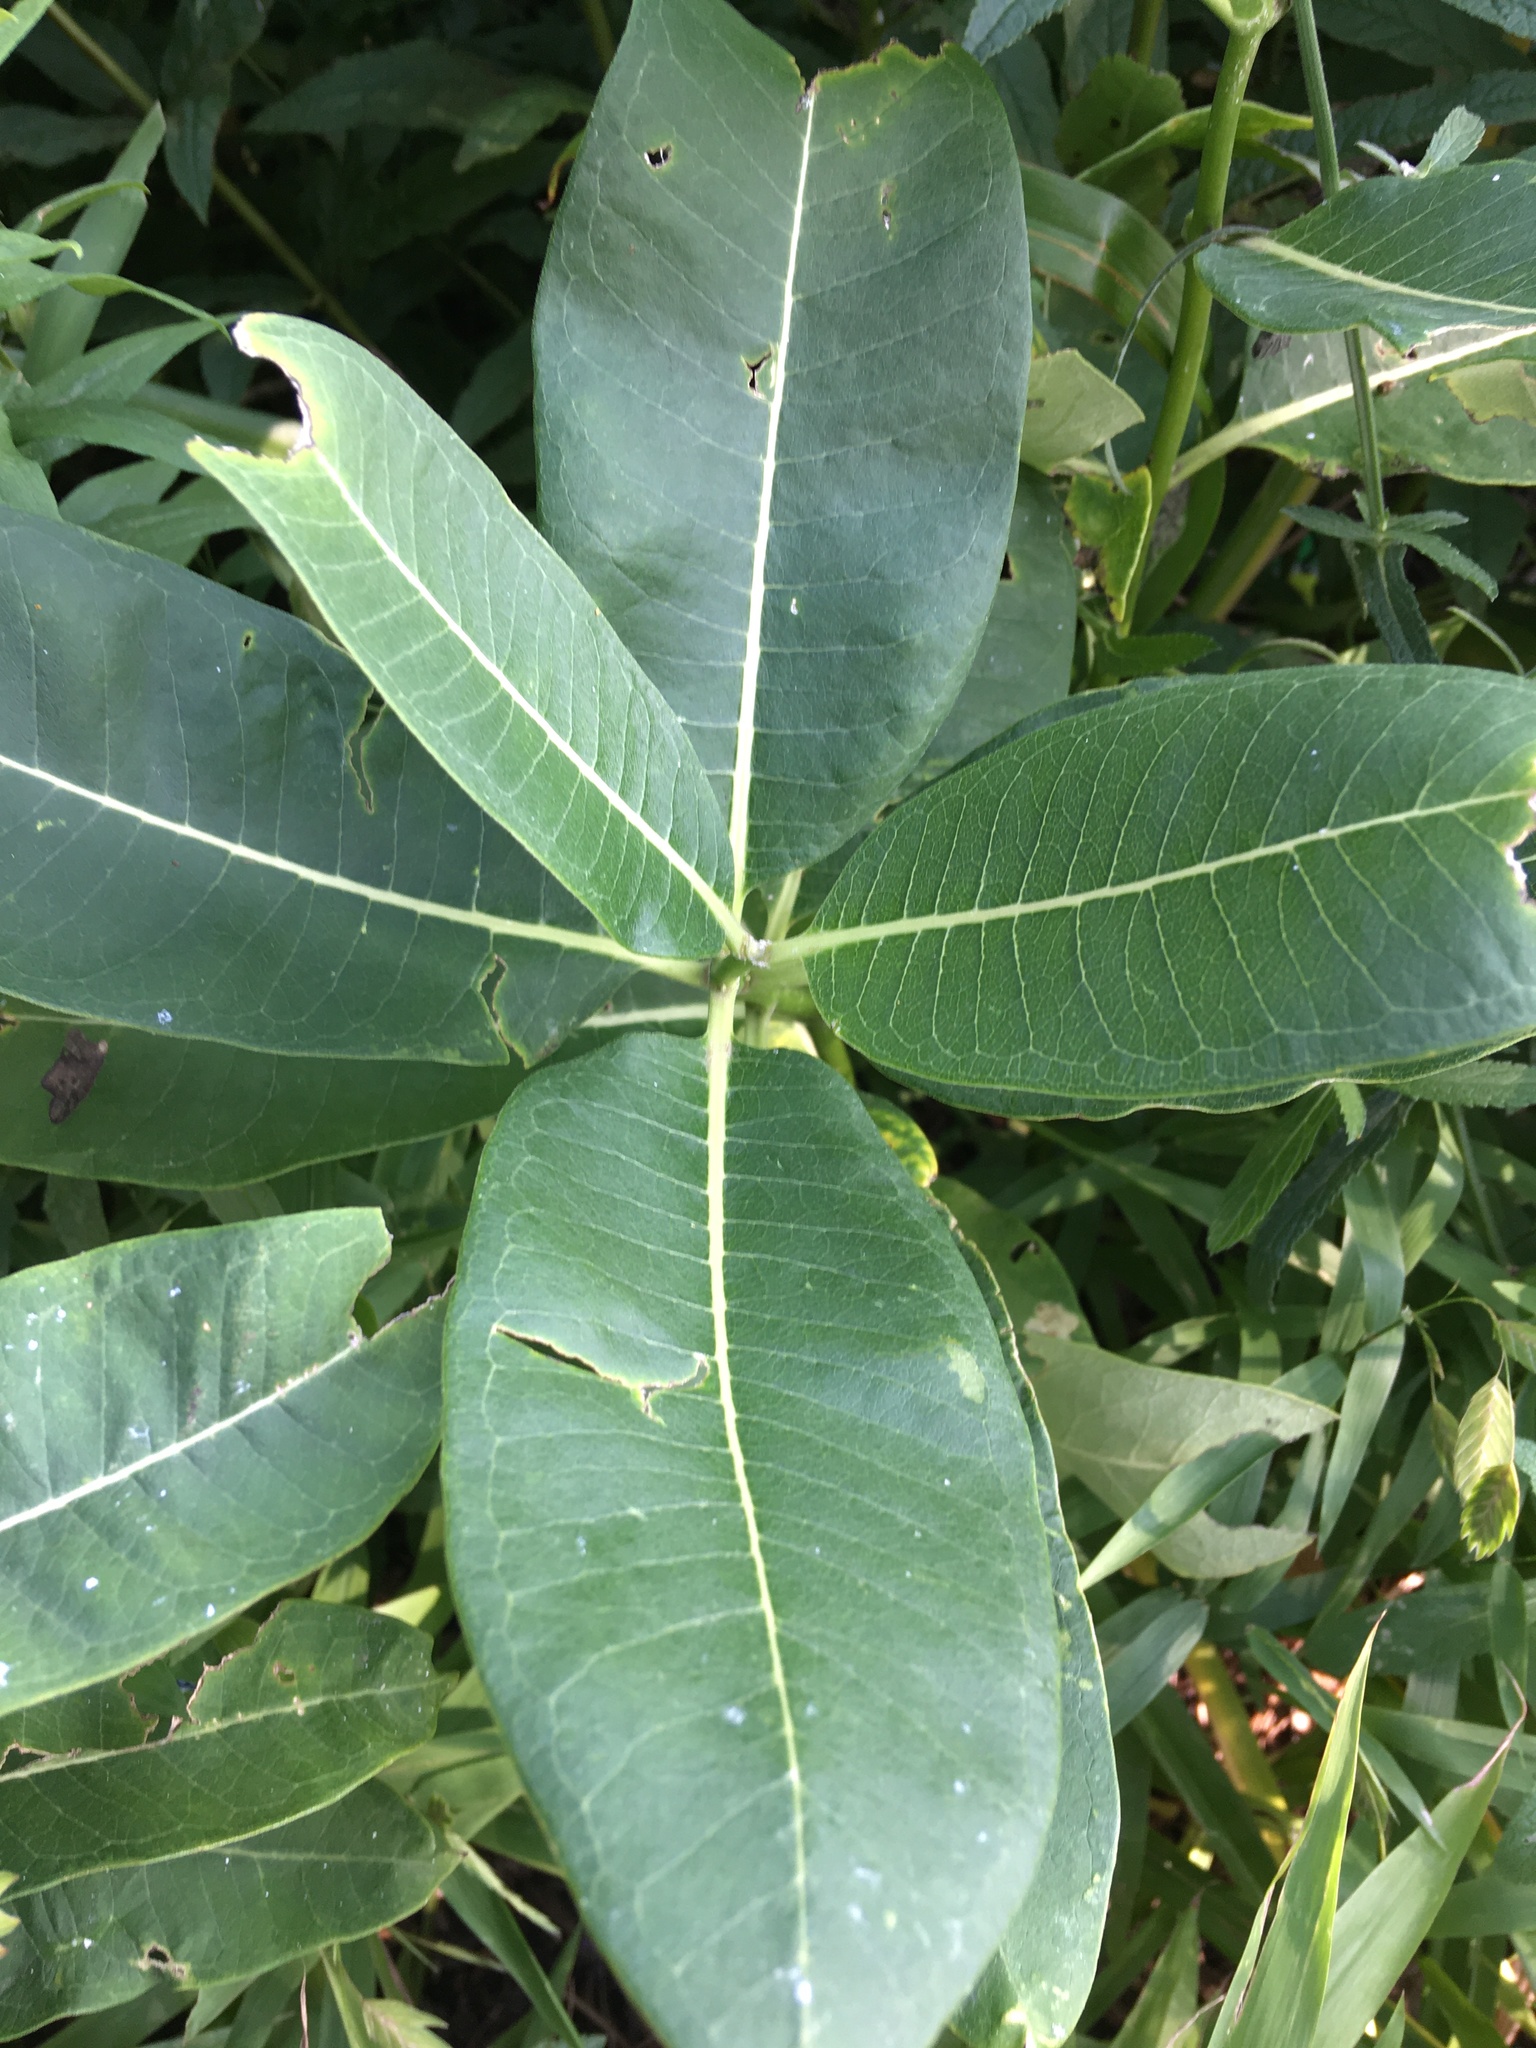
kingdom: Plantae
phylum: Tracheophyta
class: Magnoliopsida
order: Gentianales
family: Apocynaceae
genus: Asclepias
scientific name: Asclepias syriaca
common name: Common milkweed
